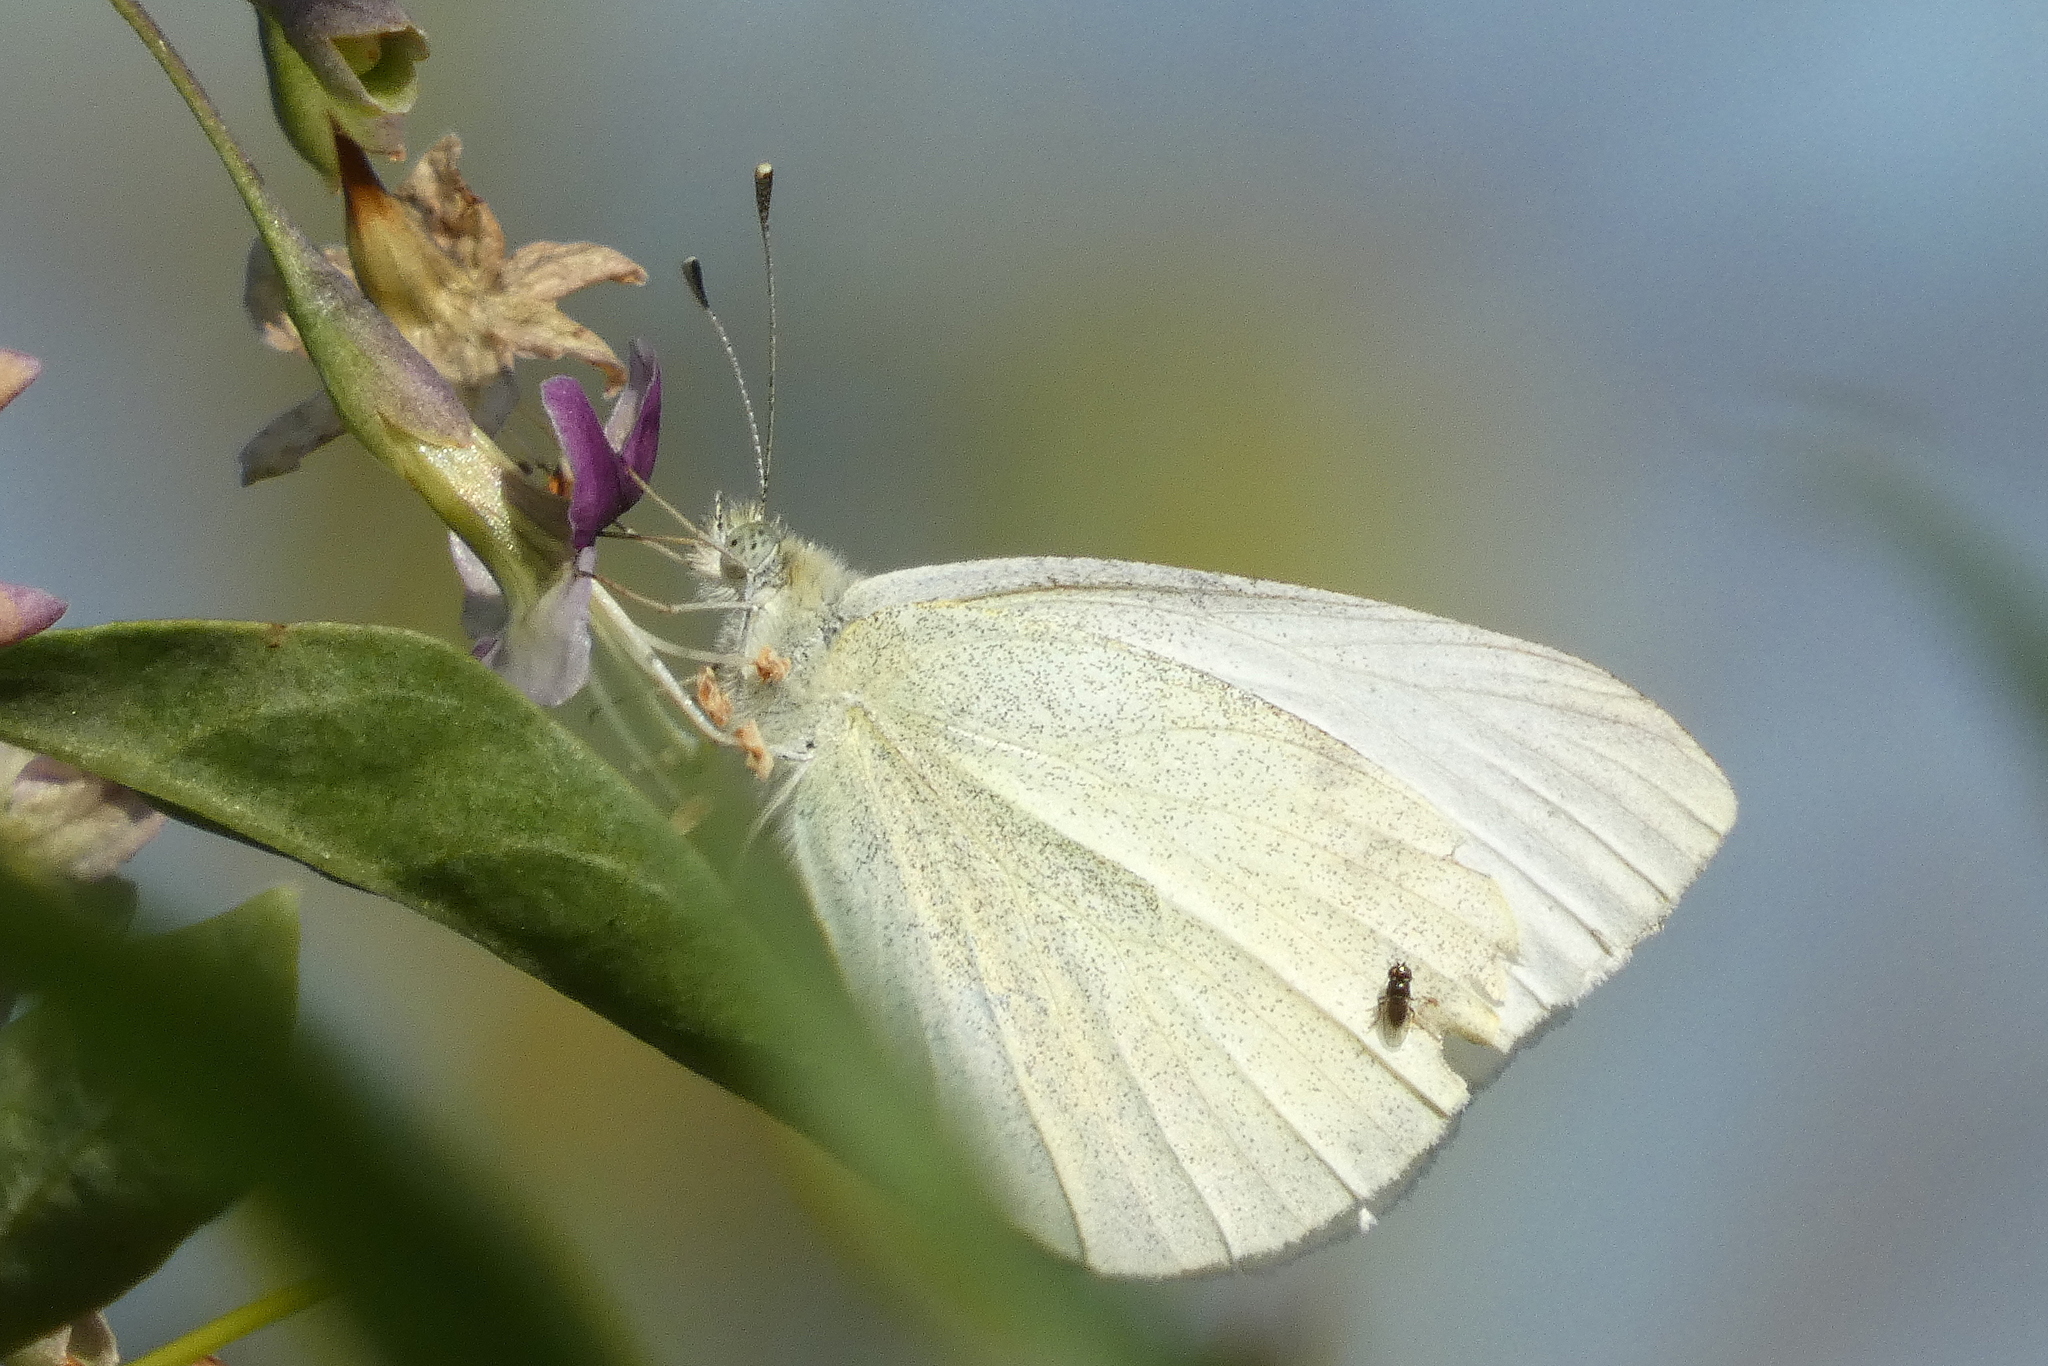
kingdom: Animalia
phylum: Arthropoda
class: Insecta
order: Lepidoptera
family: Pieridae
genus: Pieris
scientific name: Pieris rapae
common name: Small white
